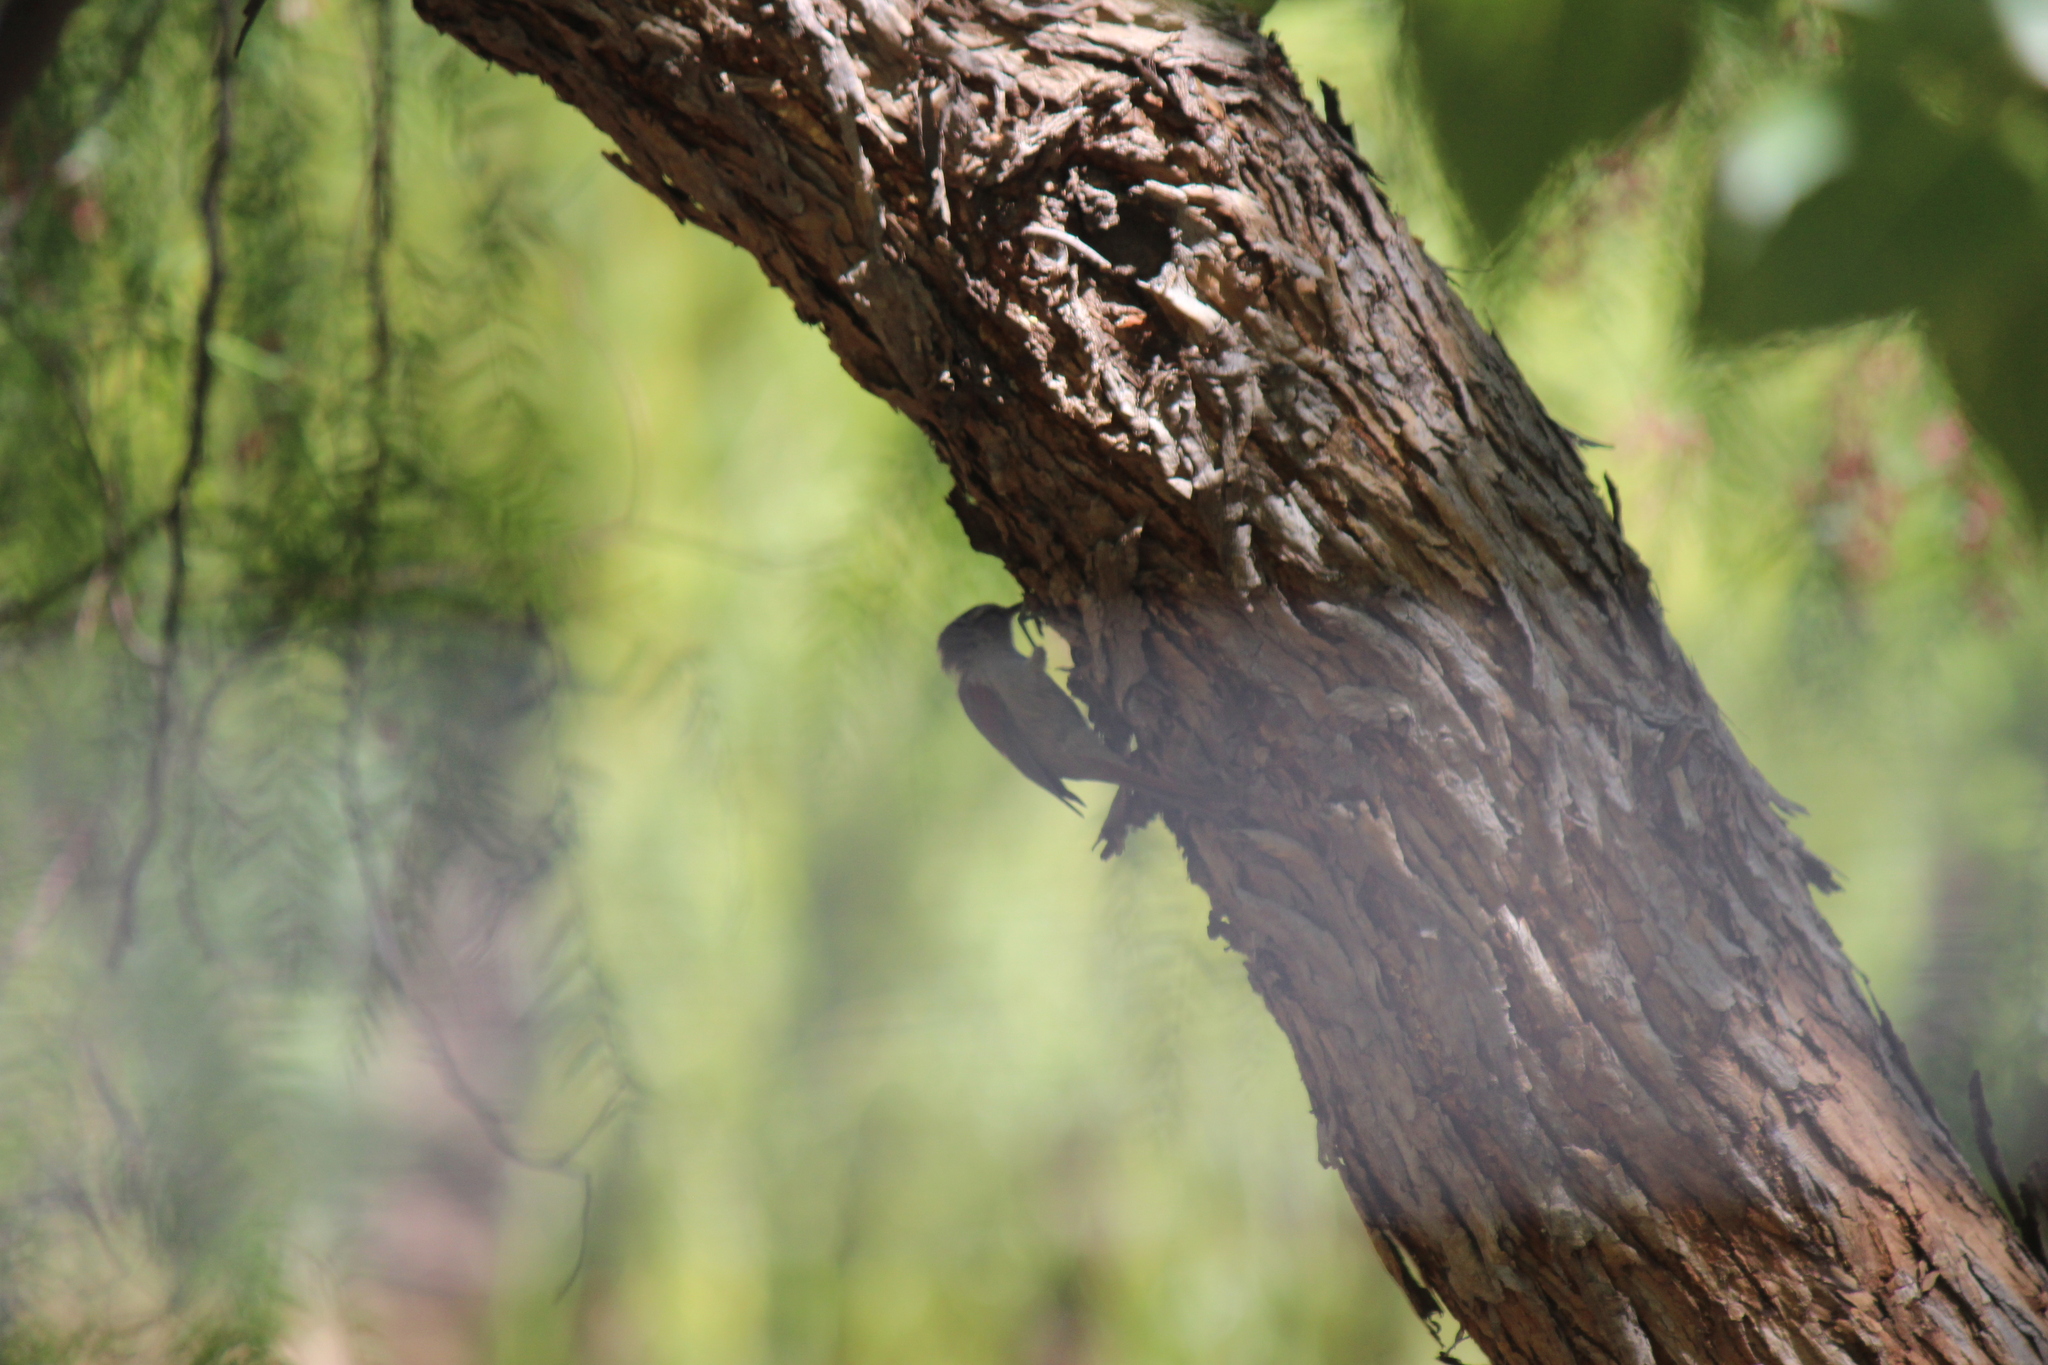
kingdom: Animalia
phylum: Chordata
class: Aves
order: Passeriformes
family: Furnariidae
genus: Cranioleuca
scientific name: Cranioleuca pyrrhophia
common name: Stripe-crowned spinetail
